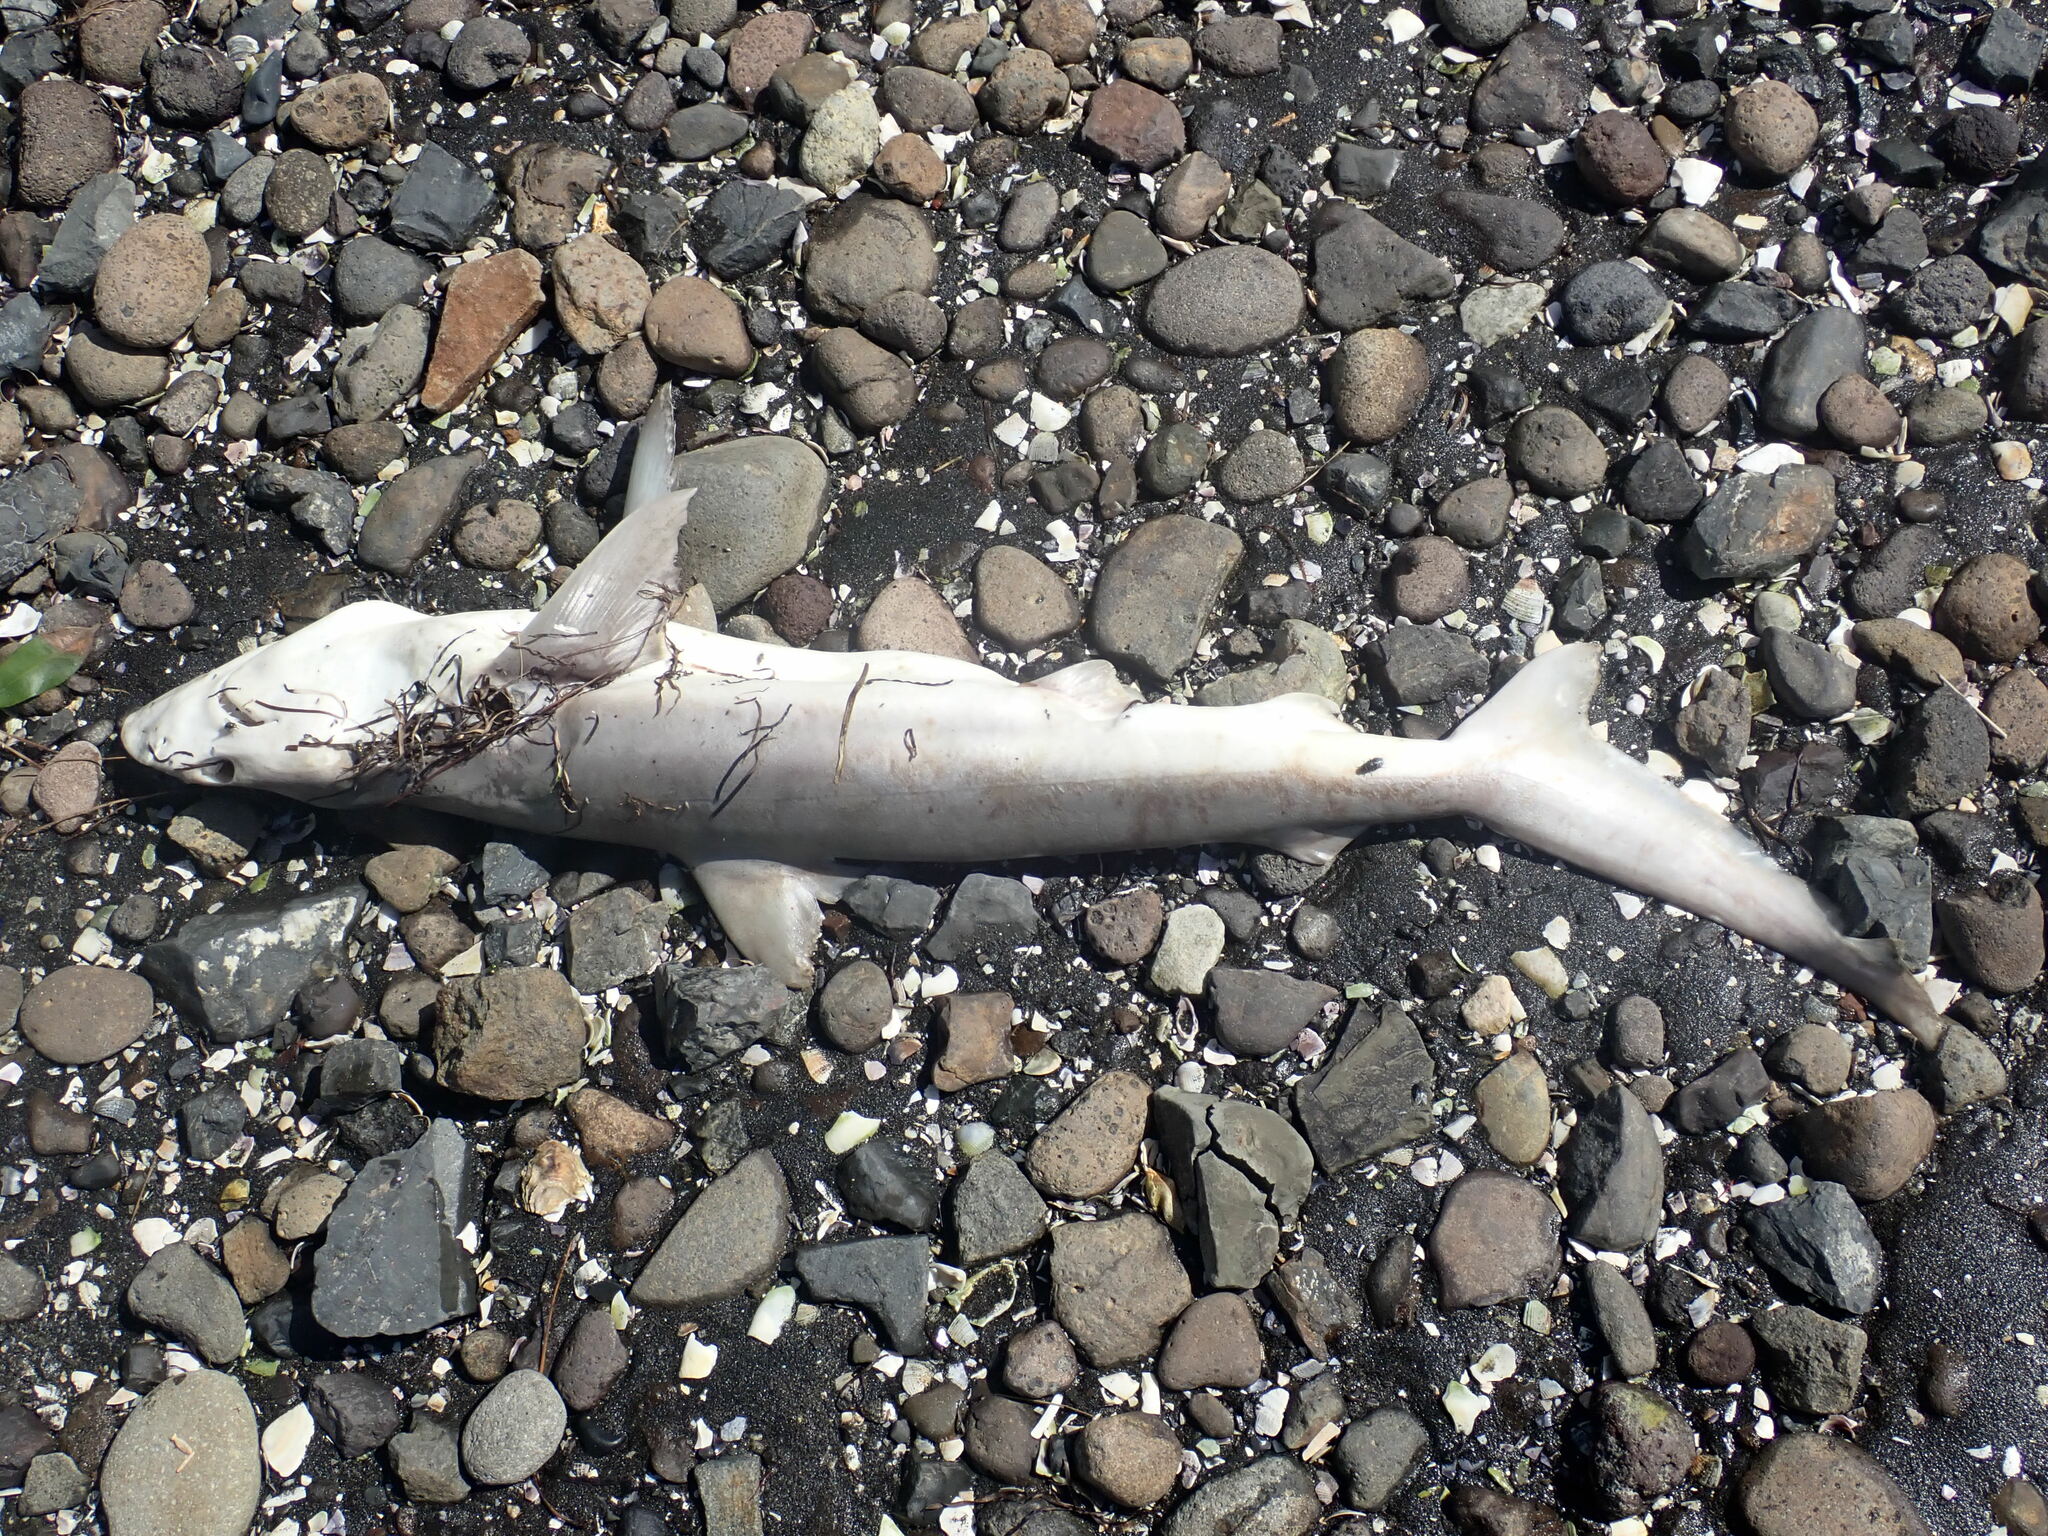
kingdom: Animalia
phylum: Chordata
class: Elasmobranchii
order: Carcharhiniformes
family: Carcharhinidae
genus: Carcharhinus
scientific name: Carcharhinus brachyurus
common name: Bronze whaler
